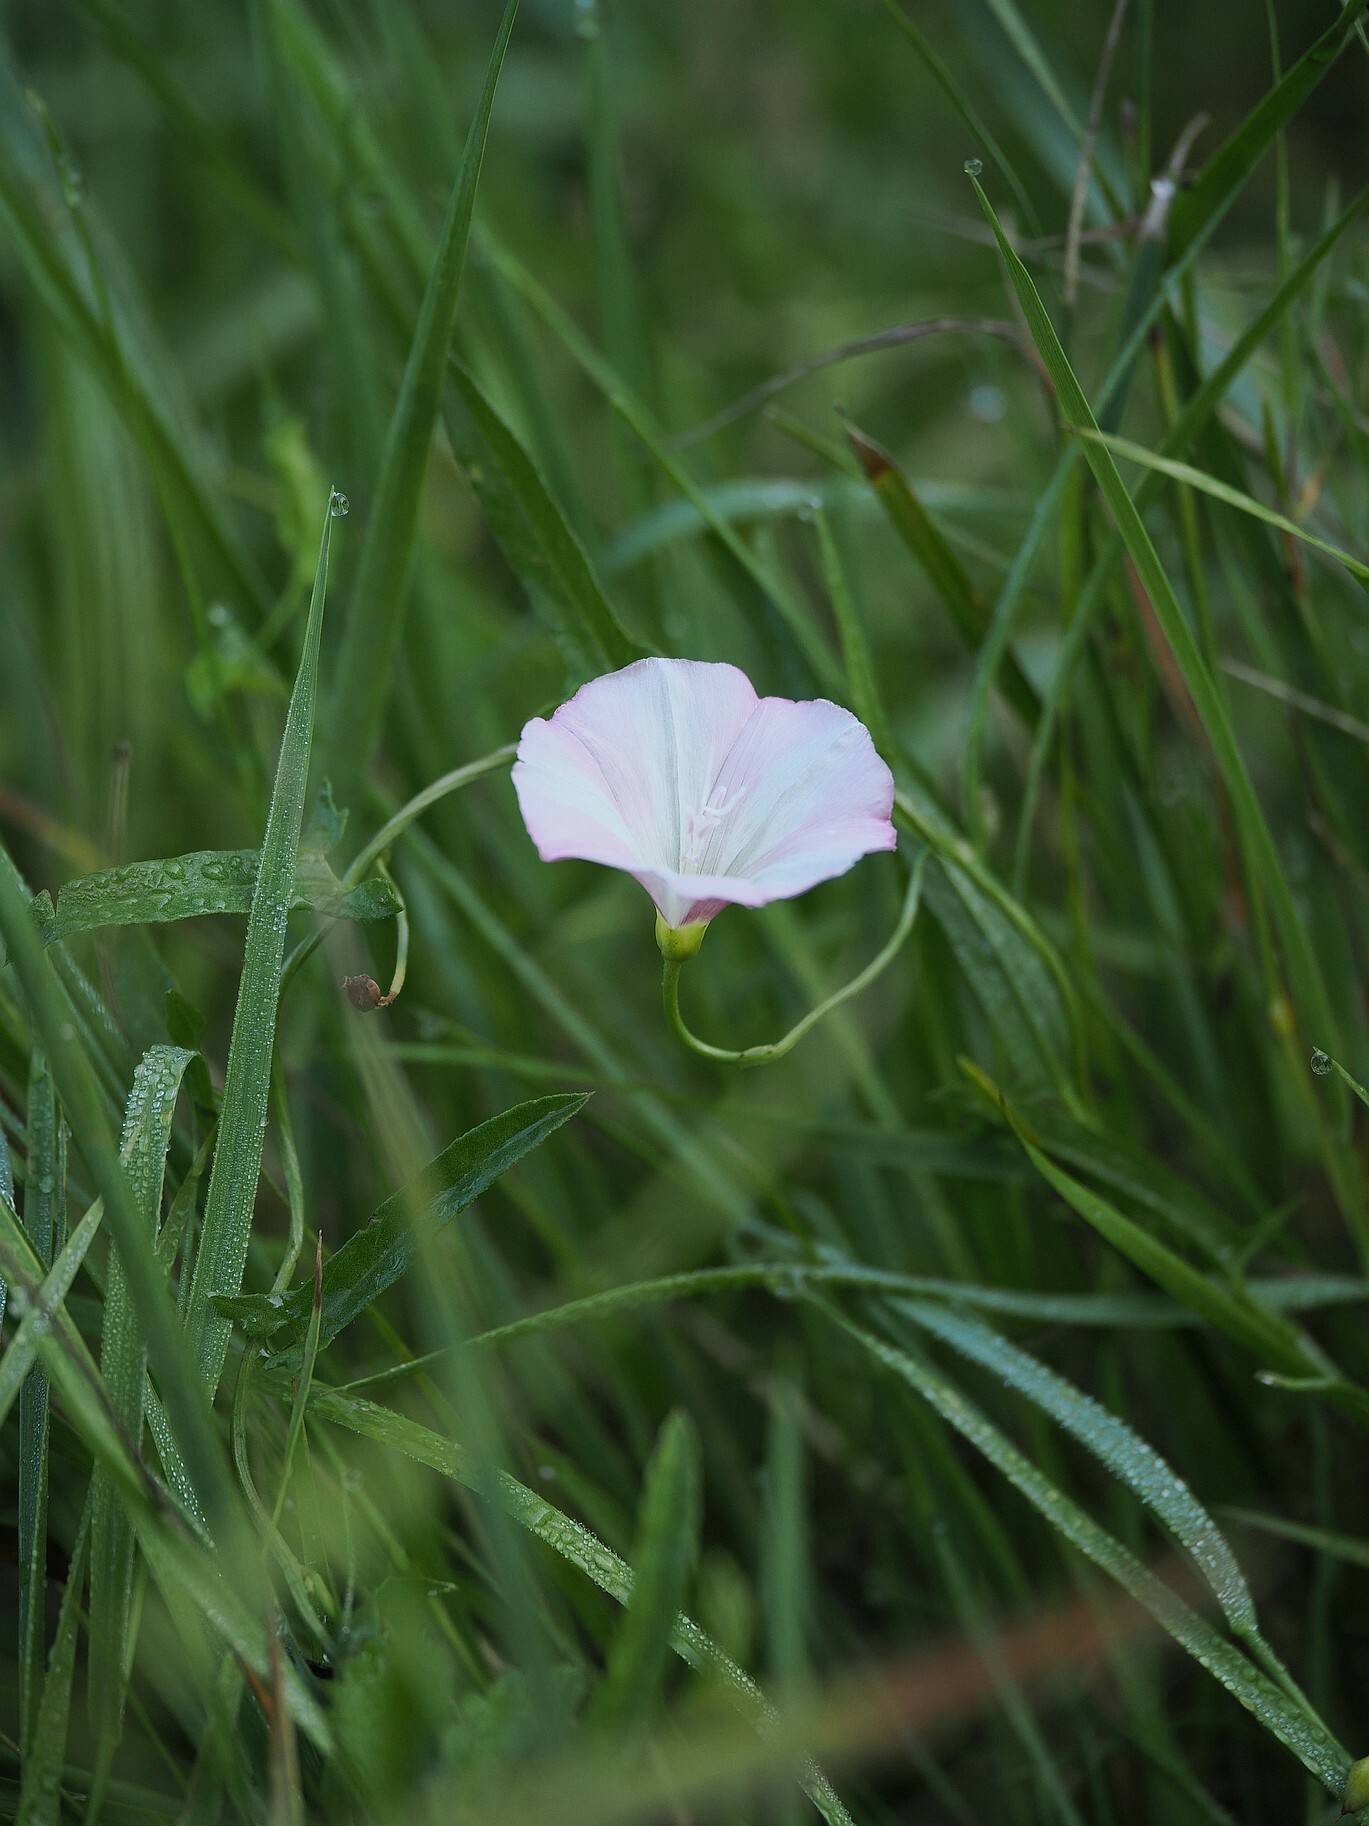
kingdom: Plantae
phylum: Tracheophyta
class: Magnoliopsida
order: Solanales
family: Convolvulaceae
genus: Convolvulus
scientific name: Convolvulus arvensis
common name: Field bindweed
